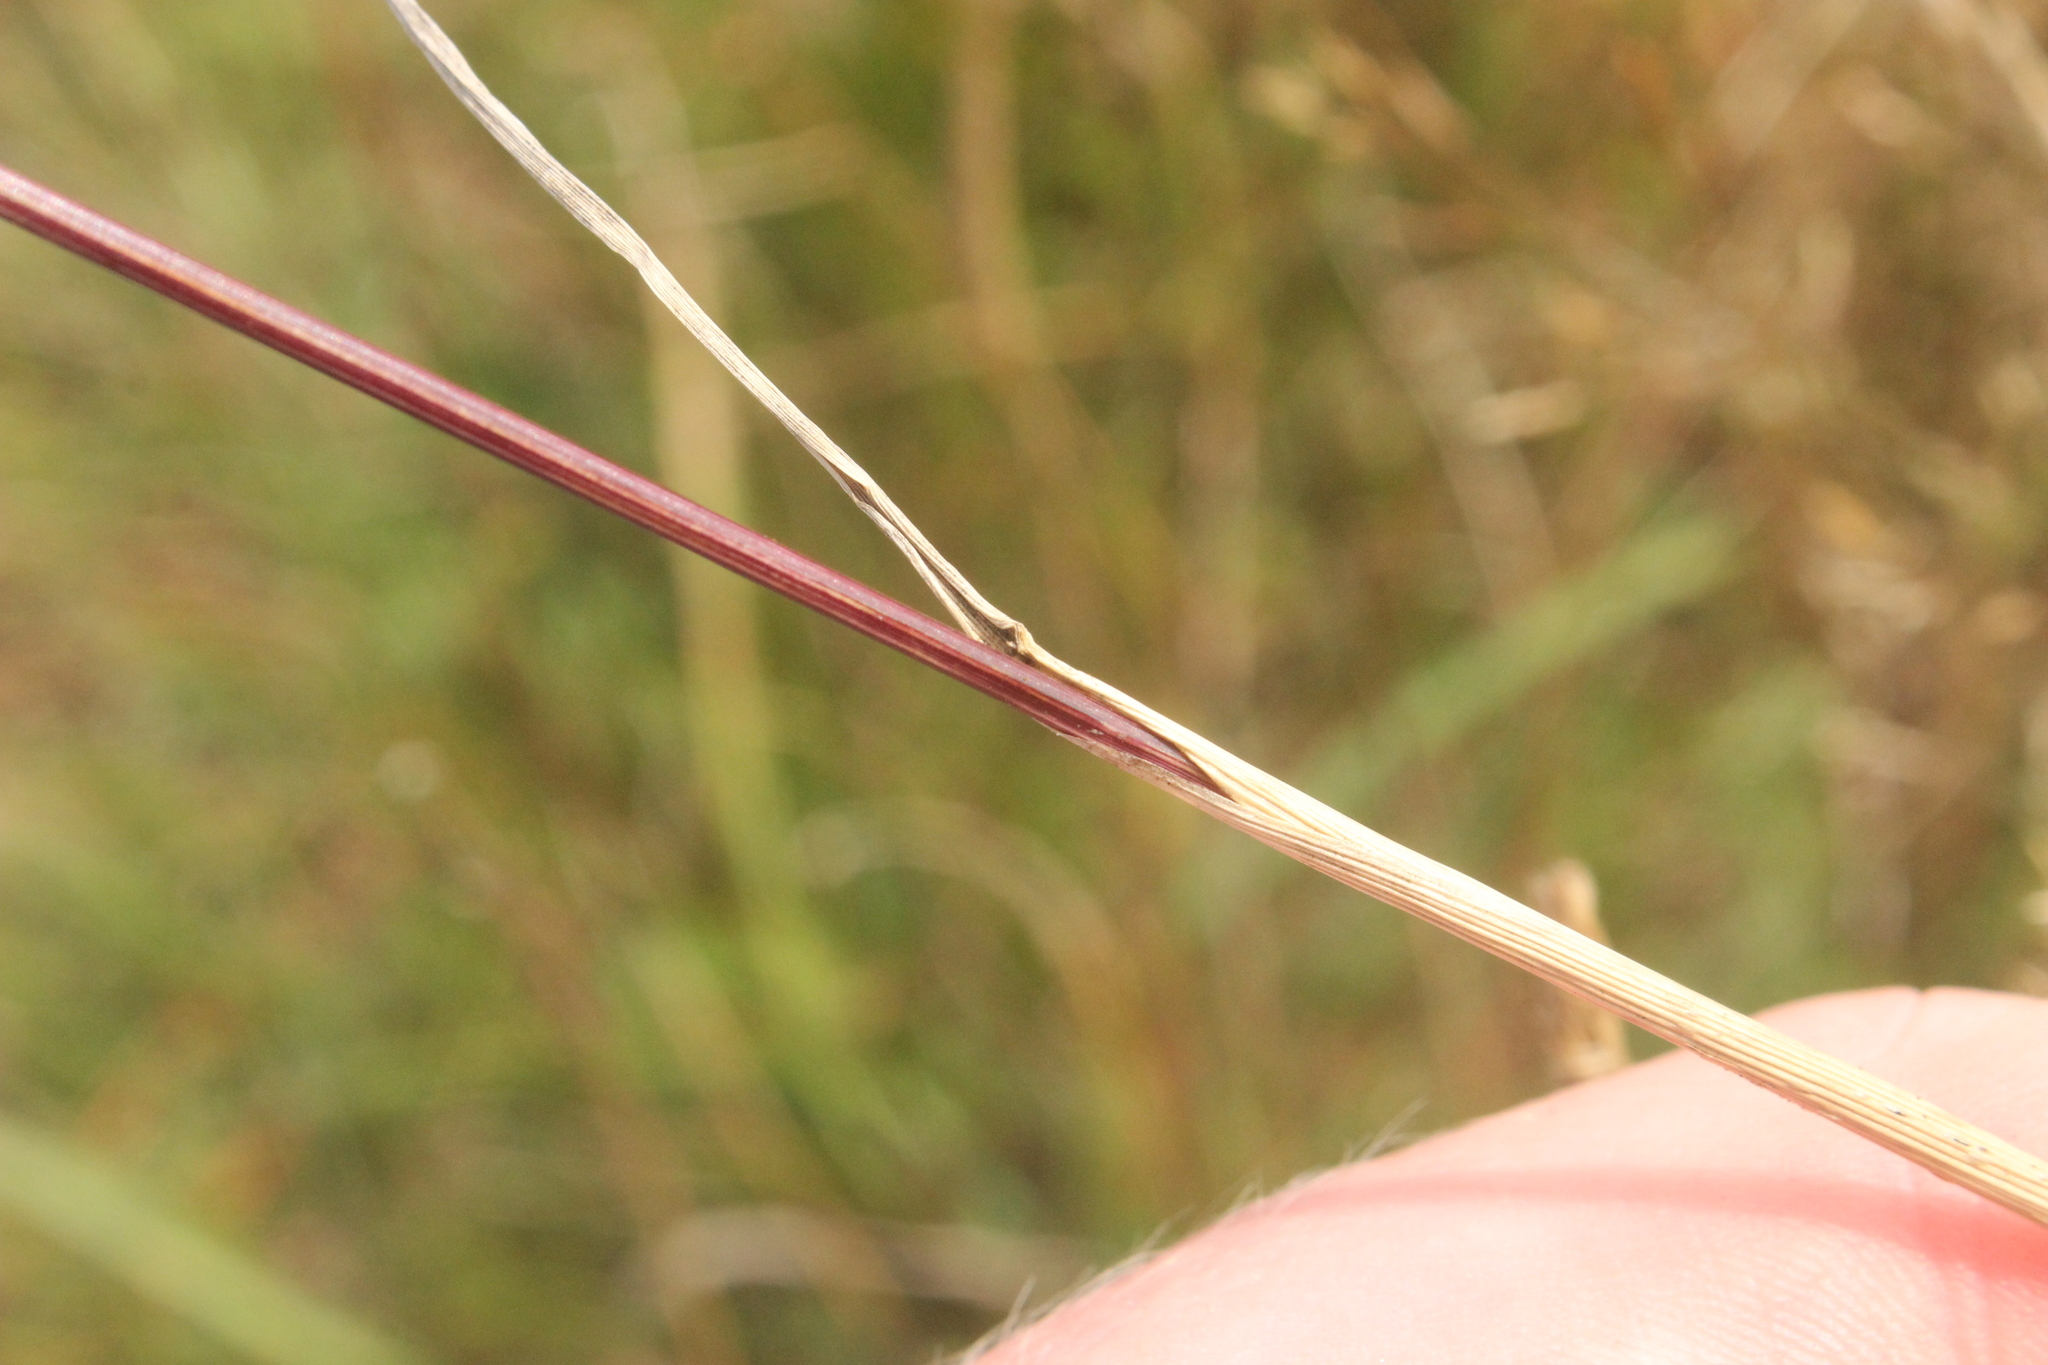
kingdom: Plantae
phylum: Tracheophyta
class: Liliopsida
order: Poales
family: Poaceae
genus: Cynosurus
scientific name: Cynosurus cristatus
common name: Crested dog's-tail
